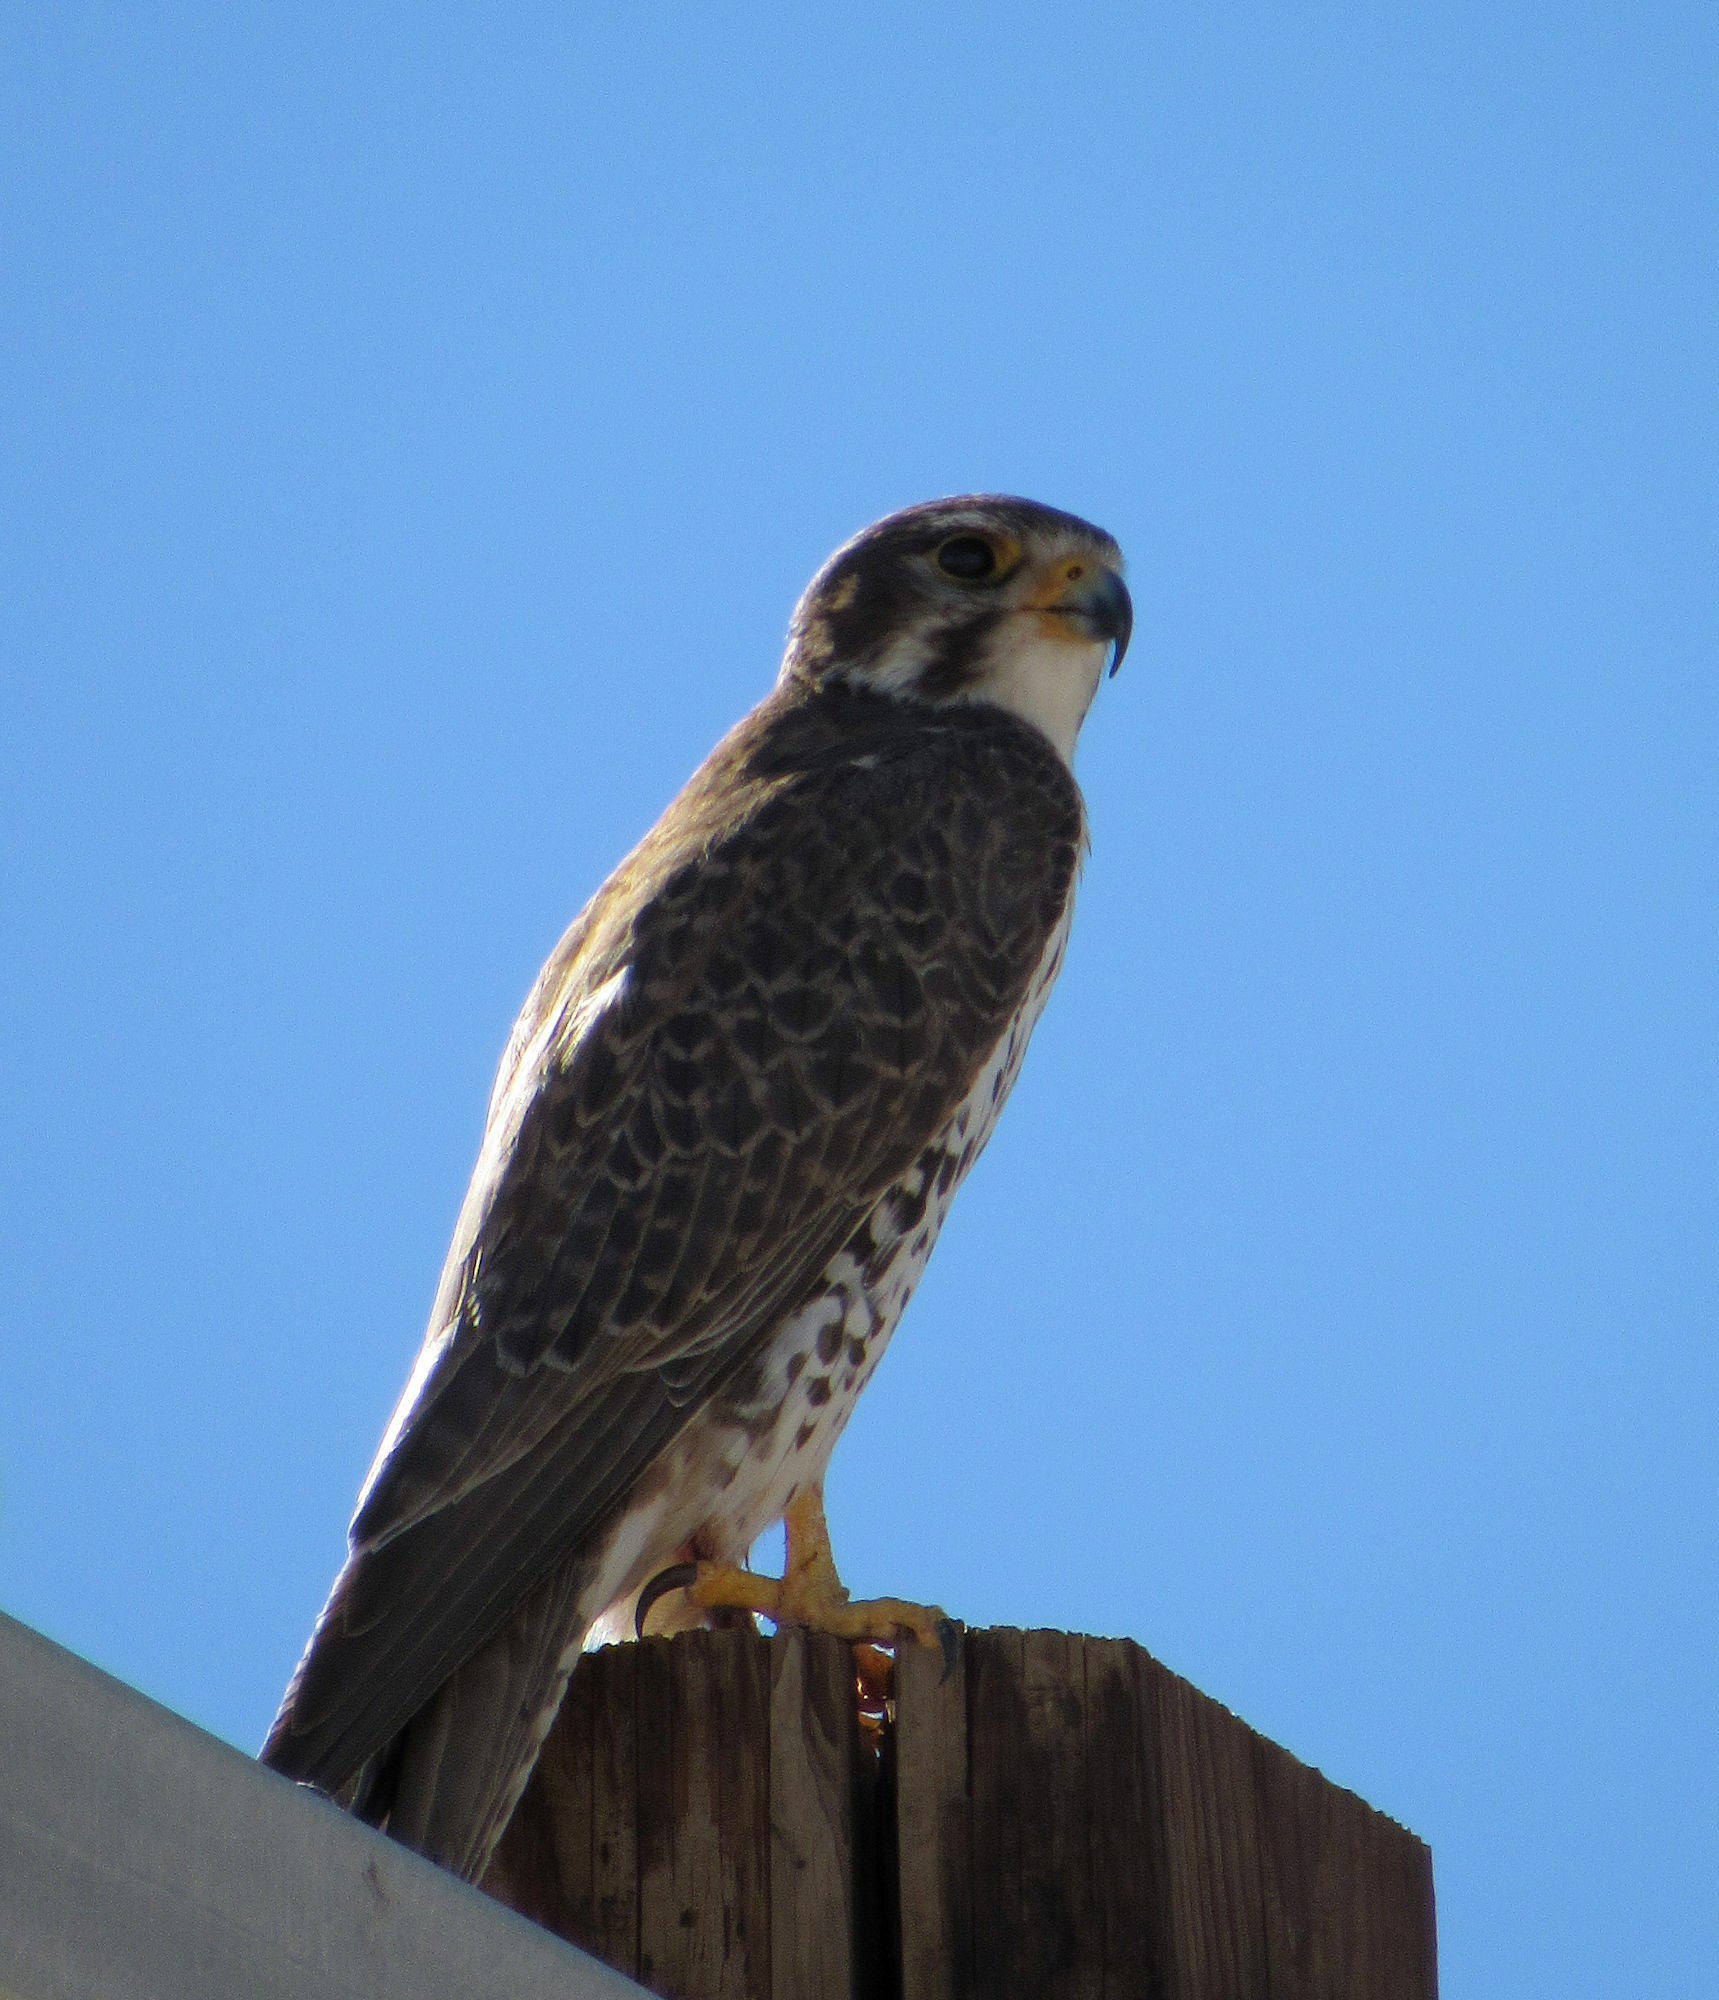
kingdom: Animalia
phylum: Chordata
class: Aves
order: Falconiformes
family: Falconidae
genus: Falco
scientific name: Falco mexicanus
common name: Prairie falcon
